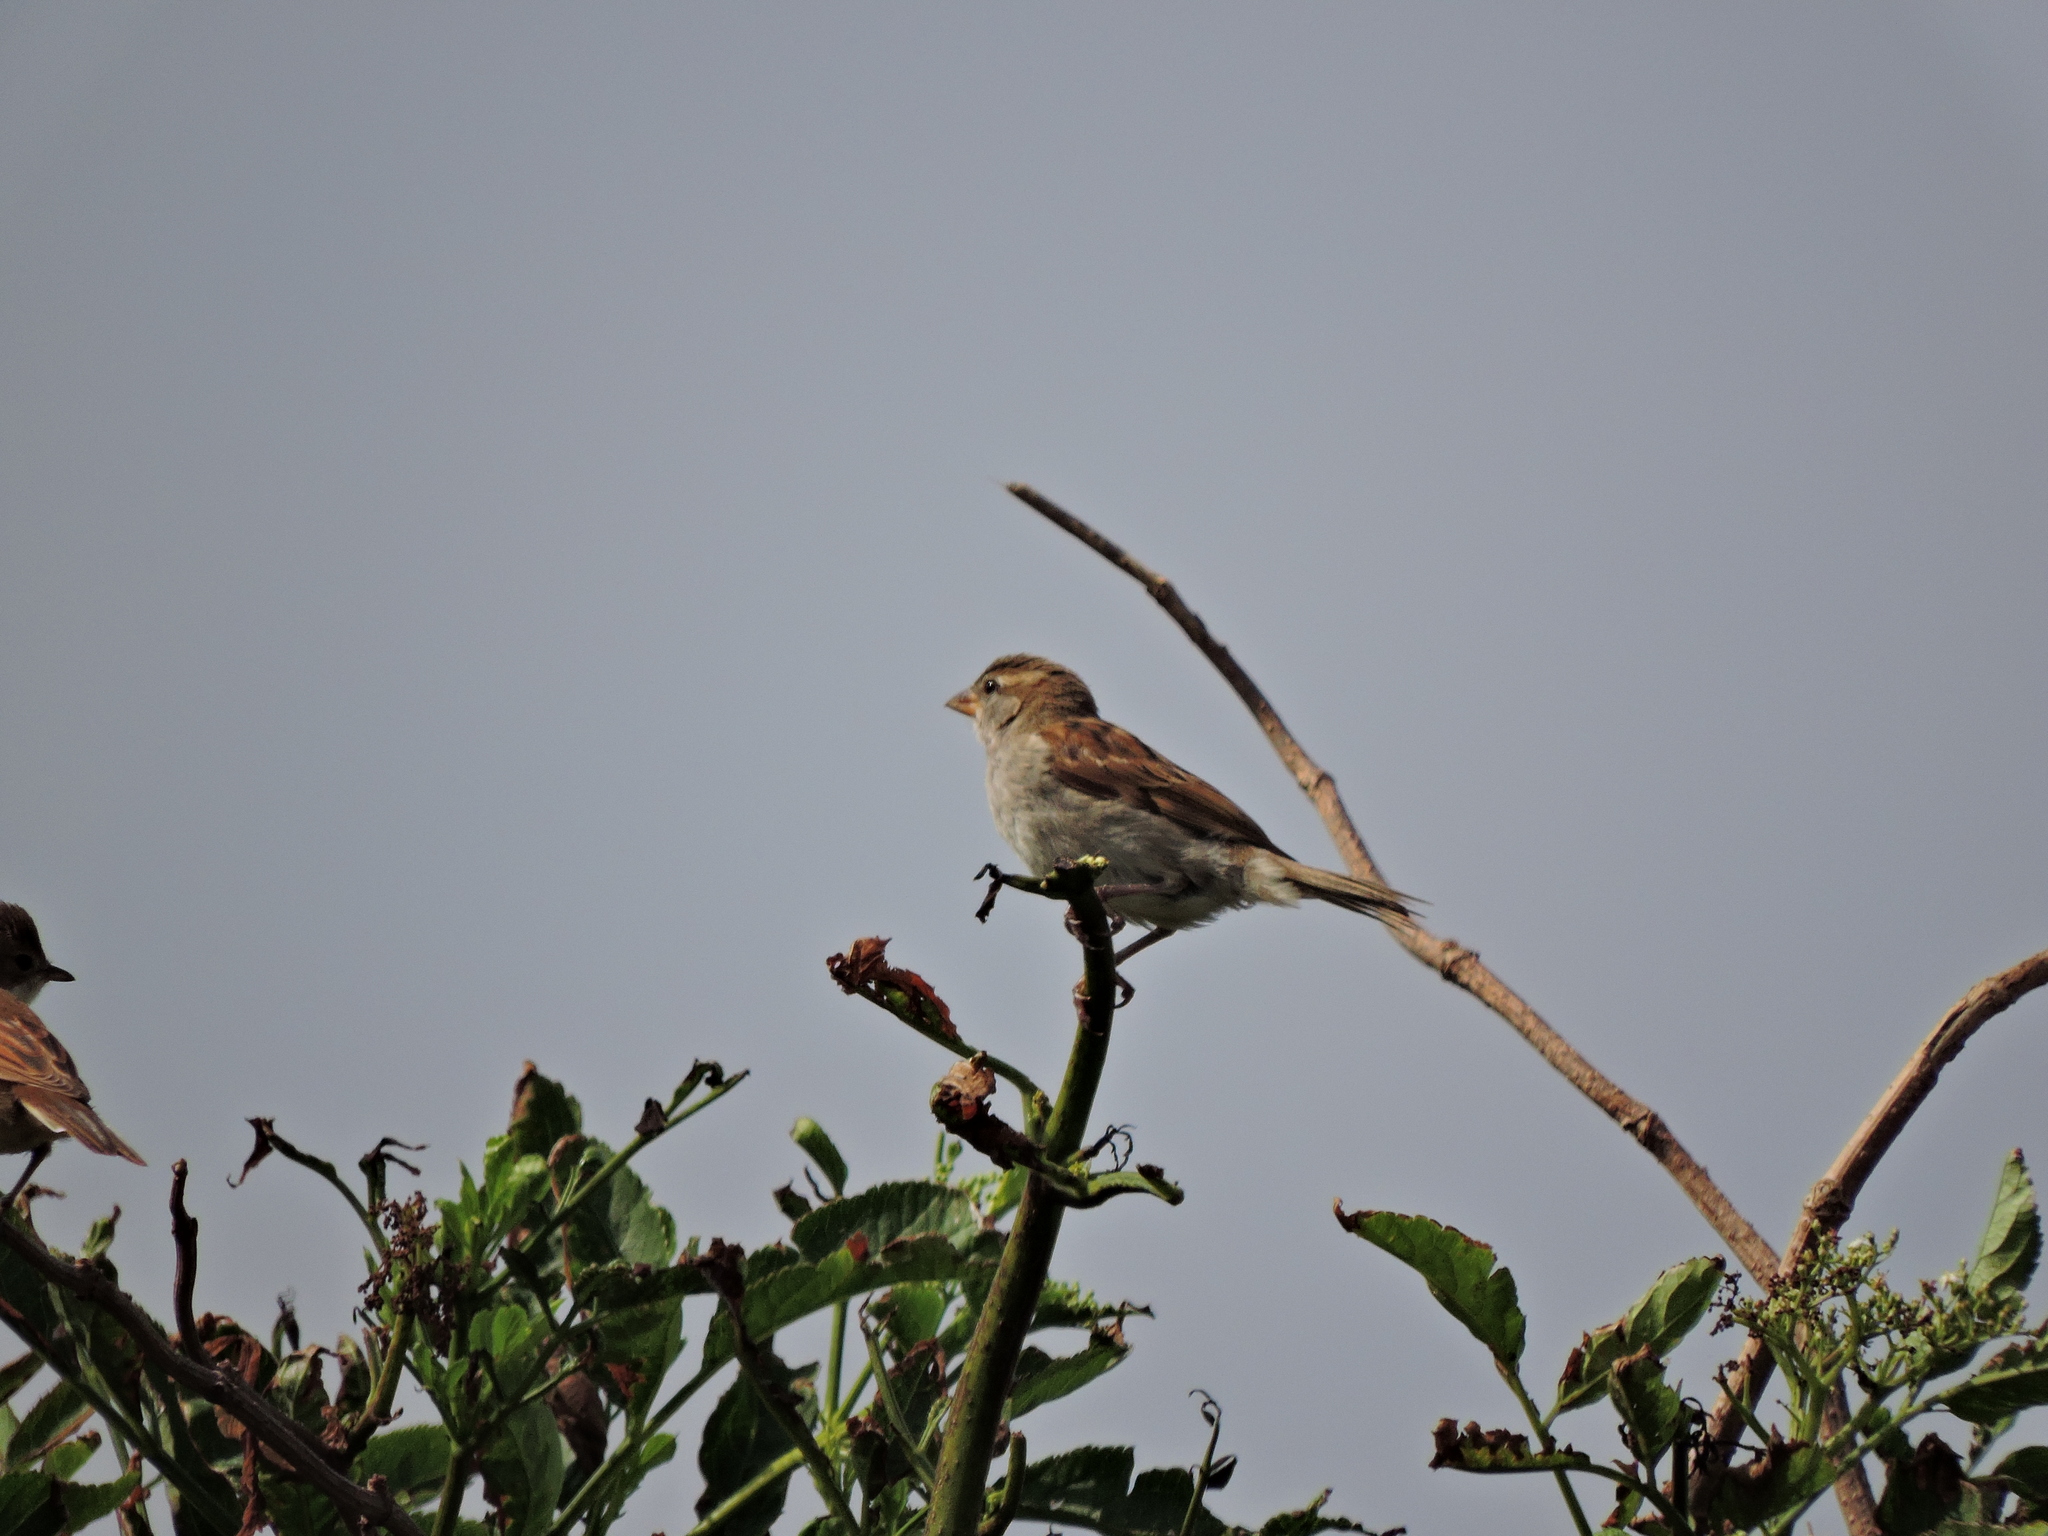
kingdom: Animalia
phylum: Chordata
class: Aves
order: Passeriformes
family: Passeridae
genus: Passer
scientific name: Passer domesticus
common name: House sparrow
